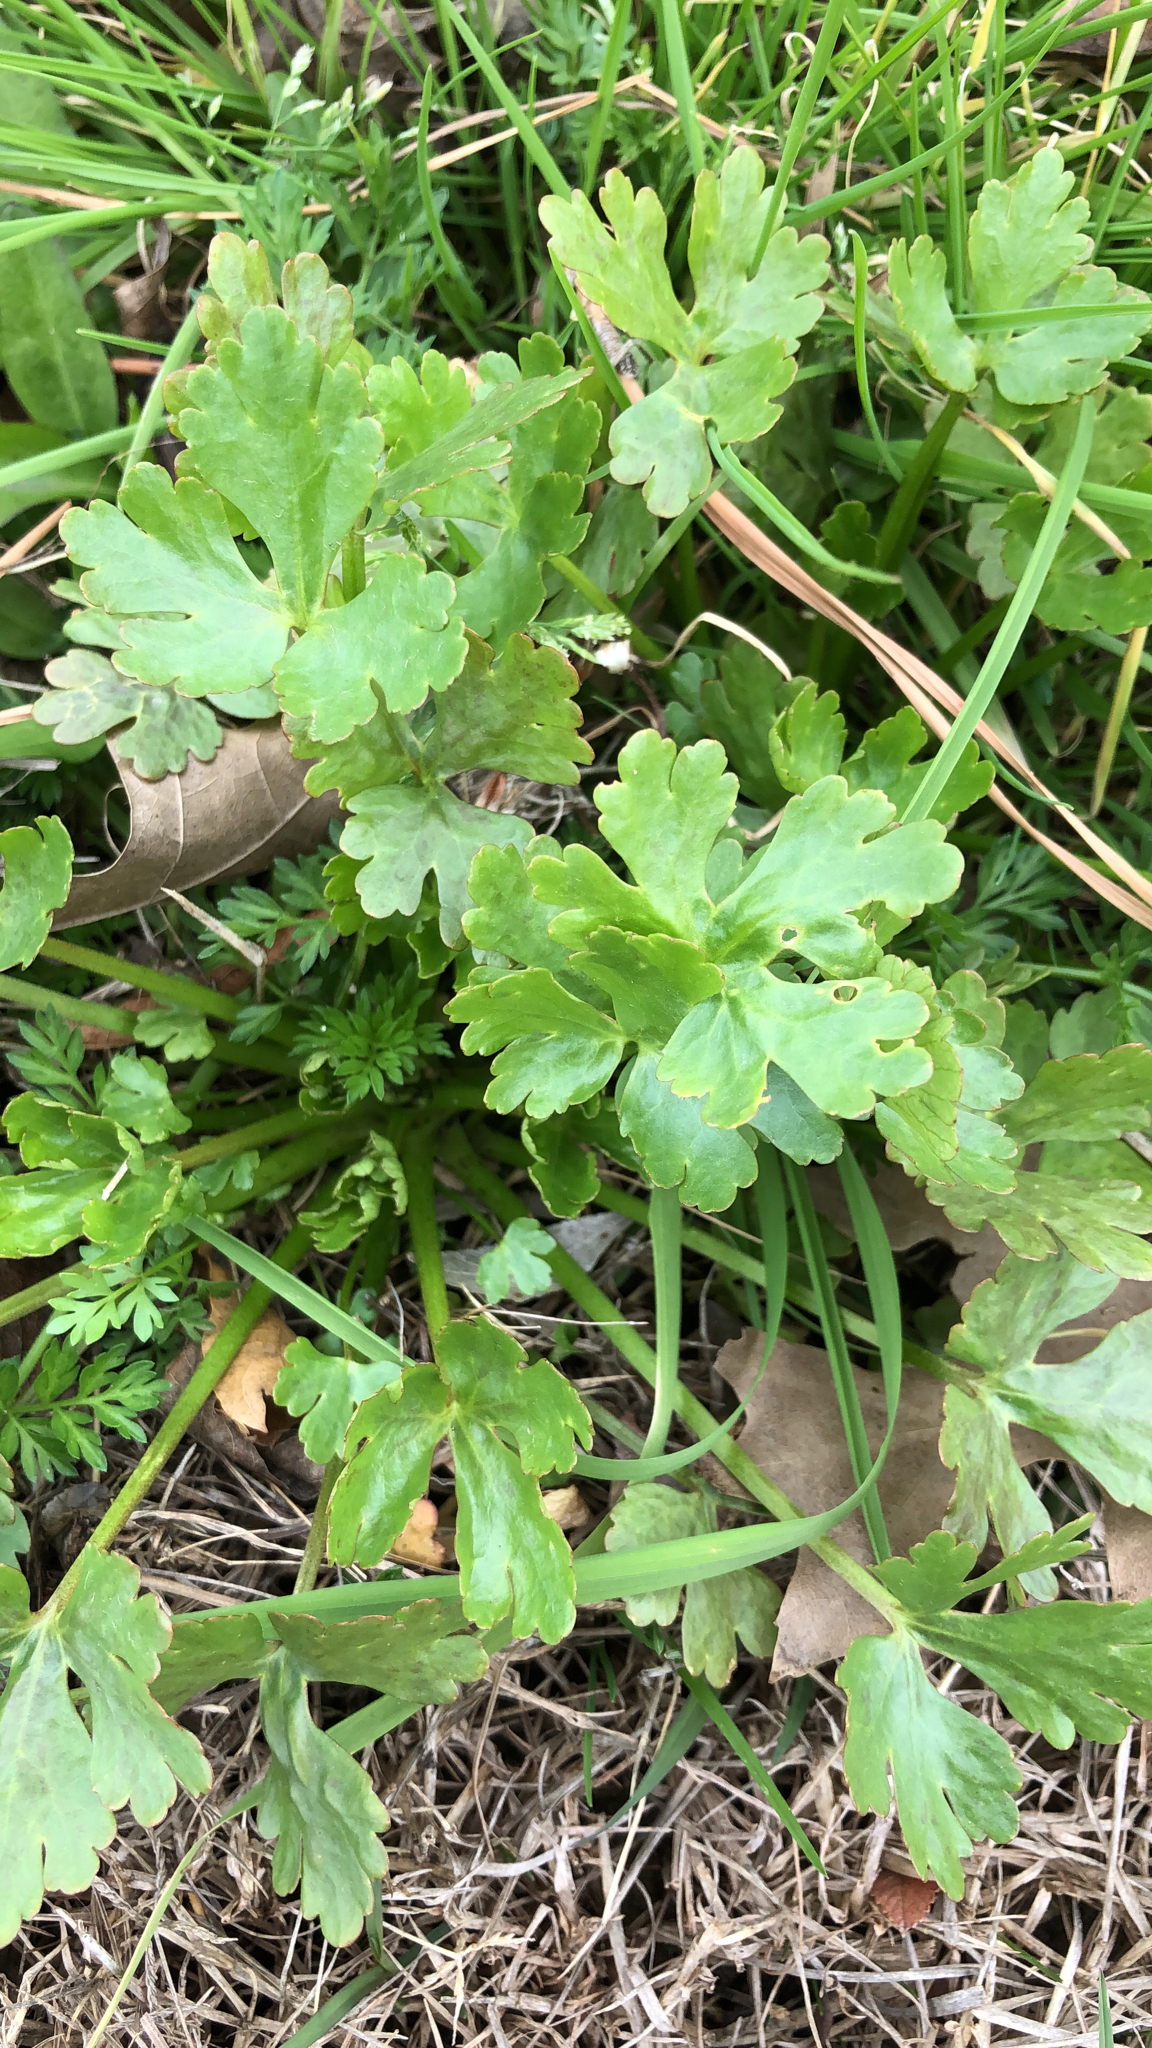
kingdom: Plantae
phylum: Tracheophyta
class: Magnoliopsida
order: Ranunculales
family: Ranunculaceae
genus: Ranunculus
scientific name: Ranunculus sceleratus
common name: Celery-leaved buttercup
